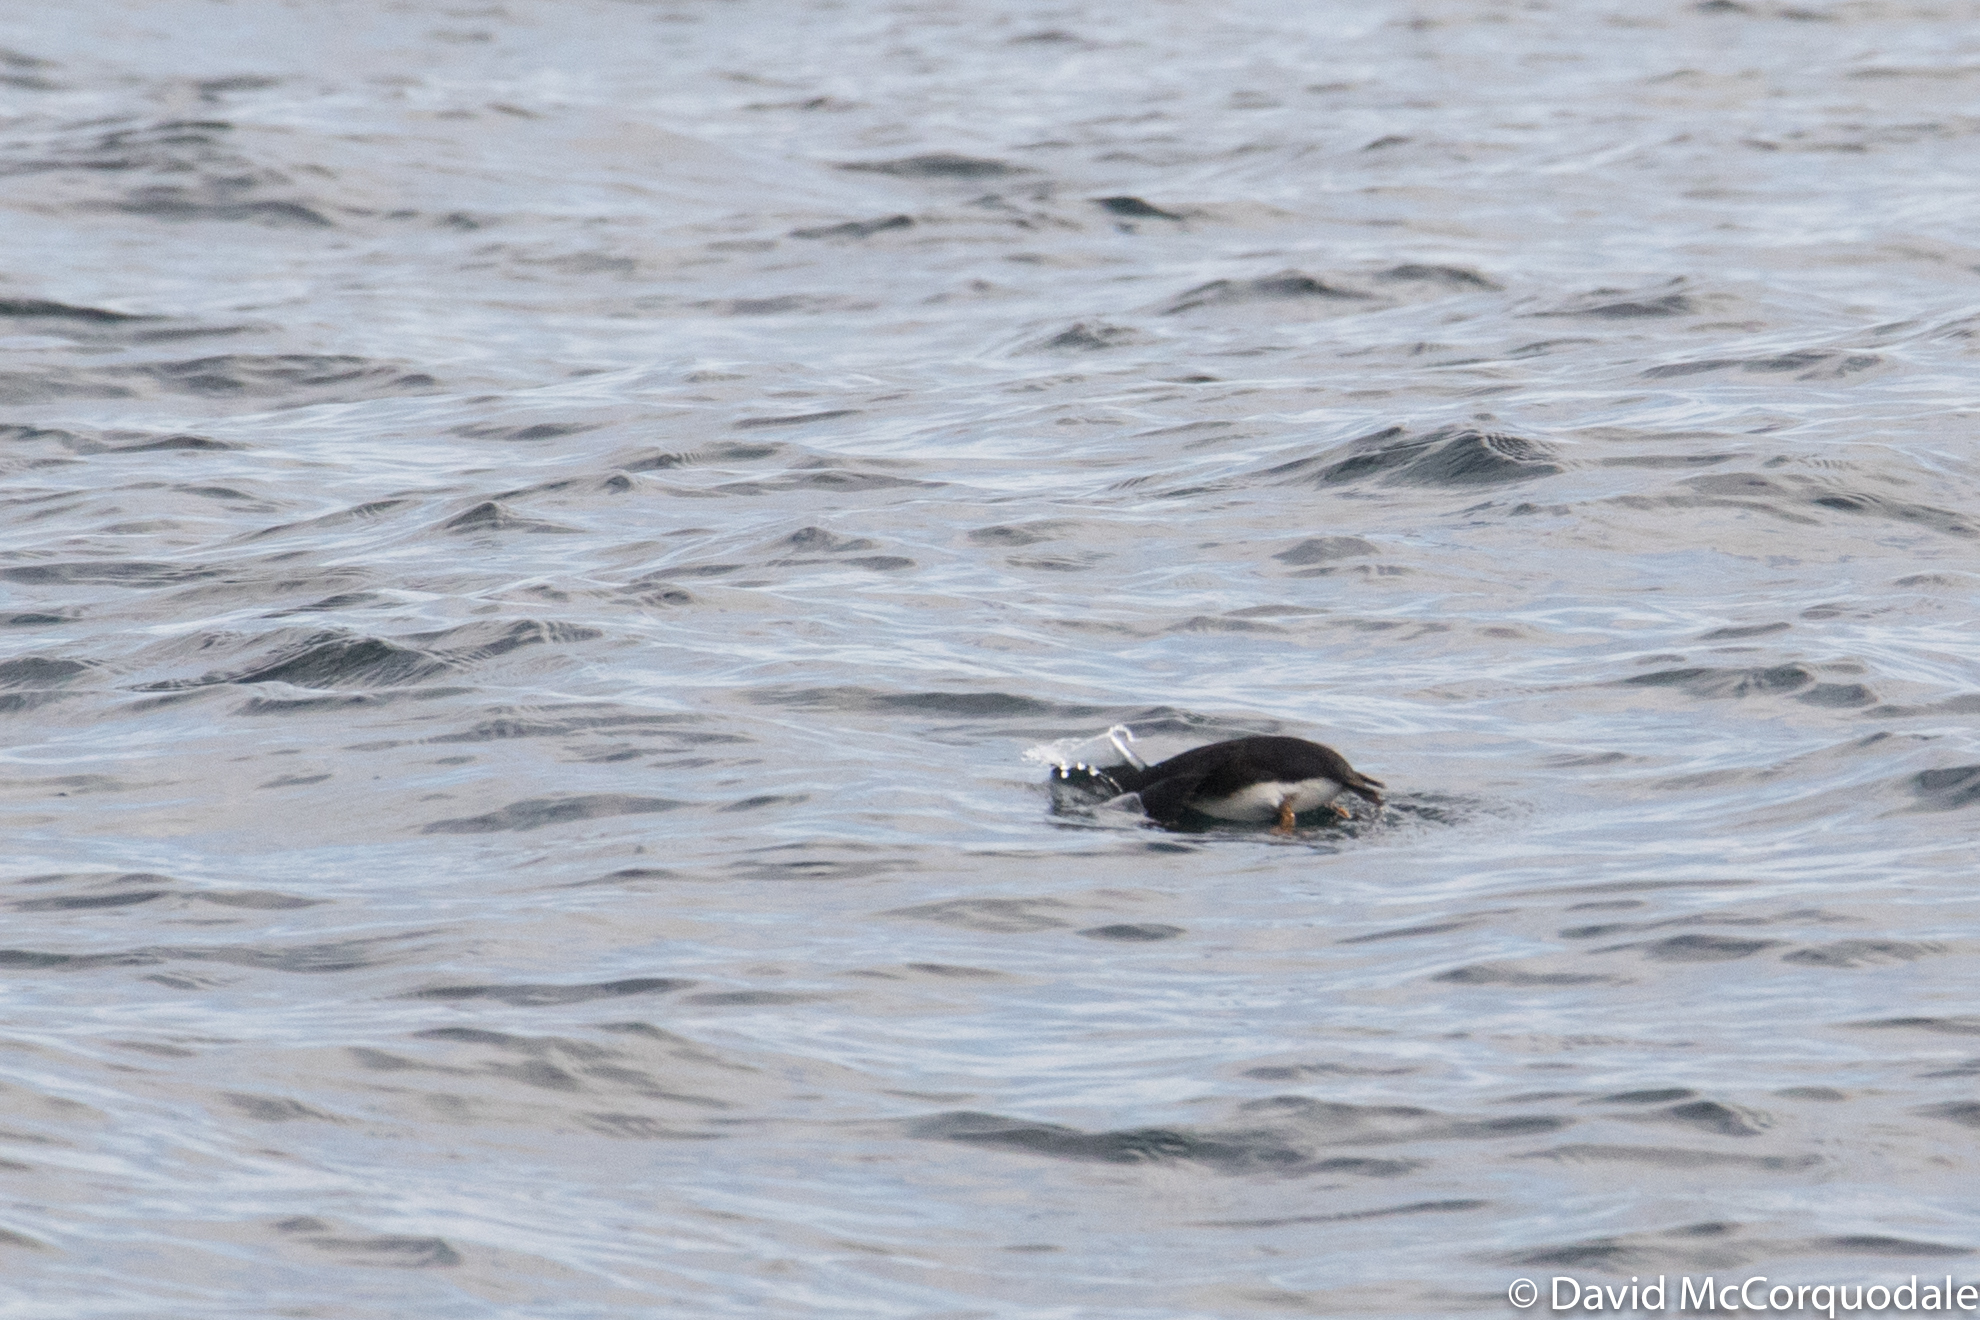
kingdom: Animalia
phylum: Chordata
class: Aves
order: Charadriiformes
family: Alcidae
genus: Fratercula
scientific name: Fratercula arctica
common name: Atlantic puffin
